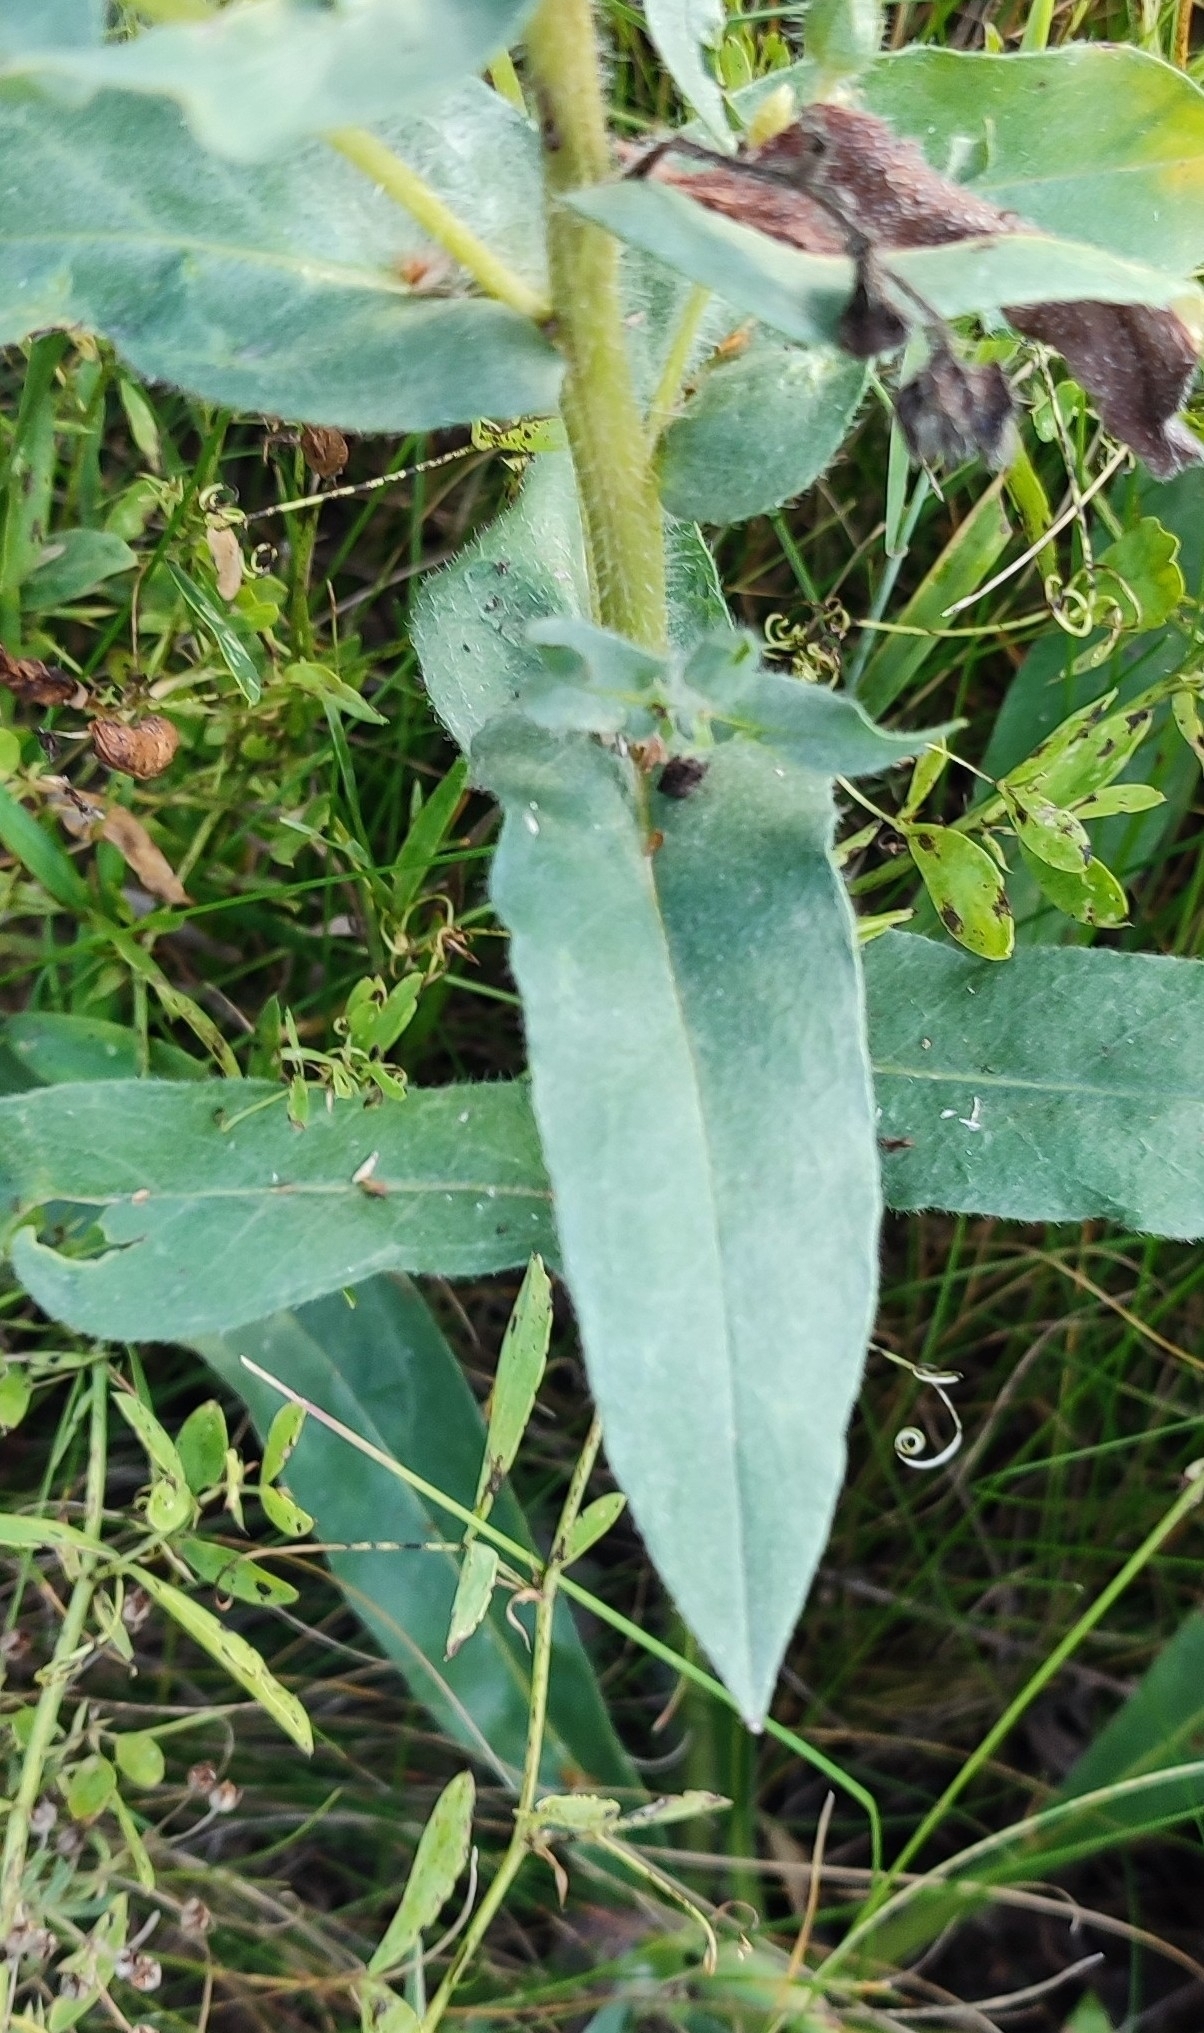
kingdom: Plantae
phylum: Tracheophyta
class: Magnoliopsida
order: Boraginales
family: Boraginaceae
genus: Nonea
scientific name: Nonea pulla
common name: Brown nonea
